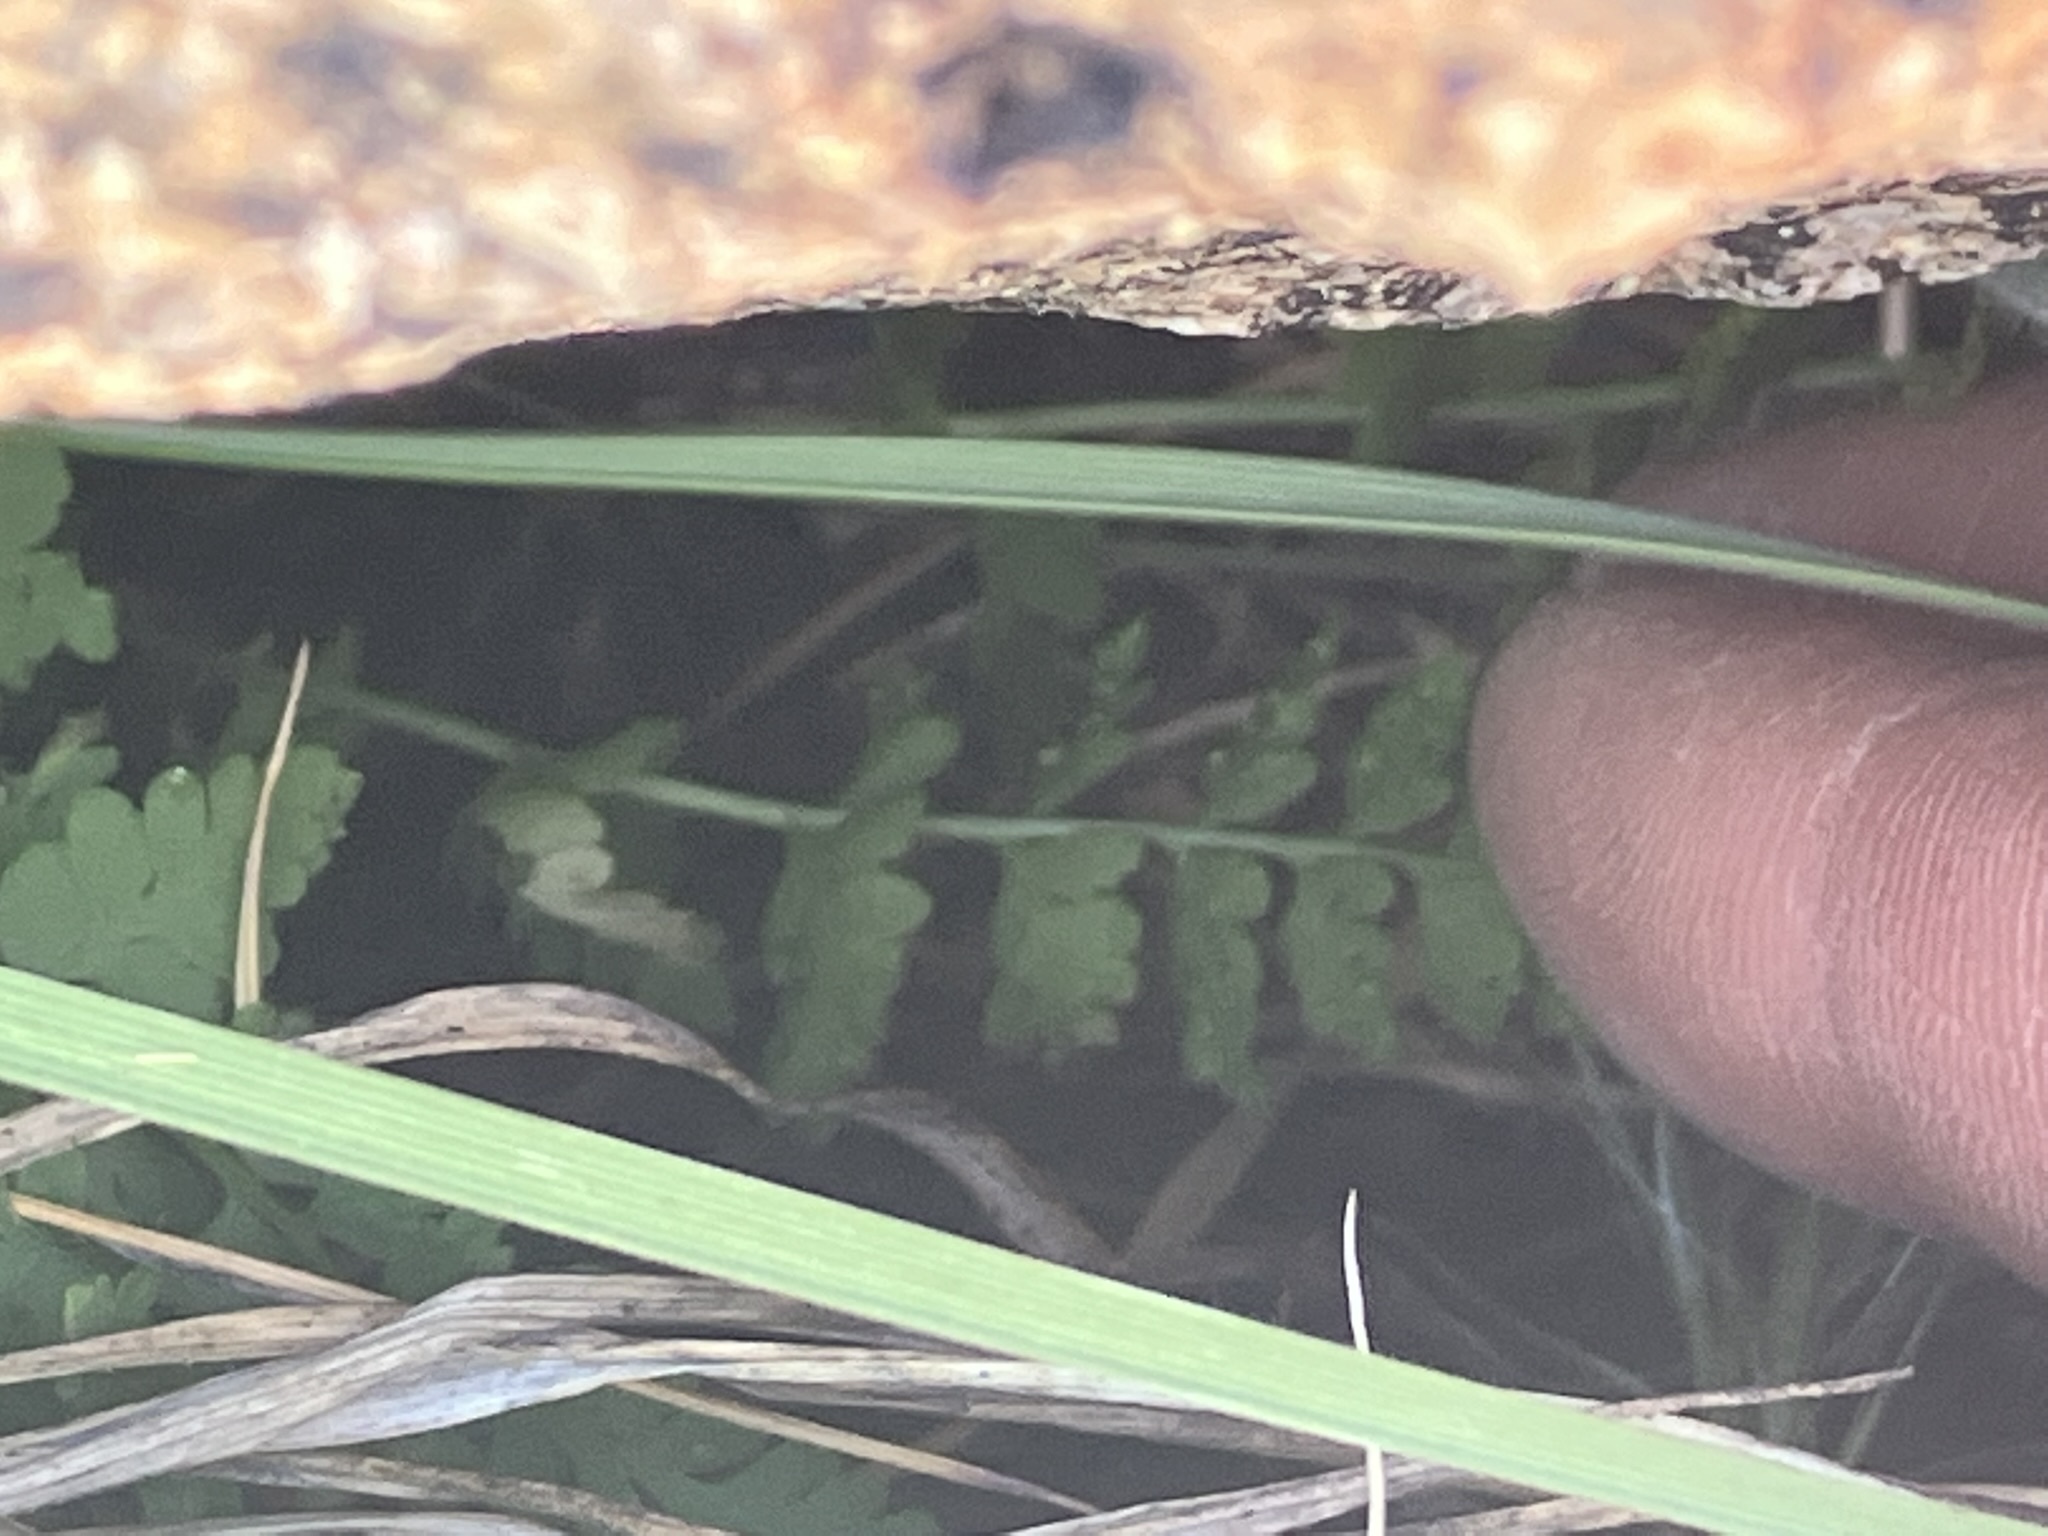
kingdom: Plantae
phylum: Tracheophyta
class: Polypodiopsida
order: Polypodiales
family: Cystopteridaceae
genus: Cystopteris
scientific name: Cystopteris fragilis
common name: Brittle bladder fern
